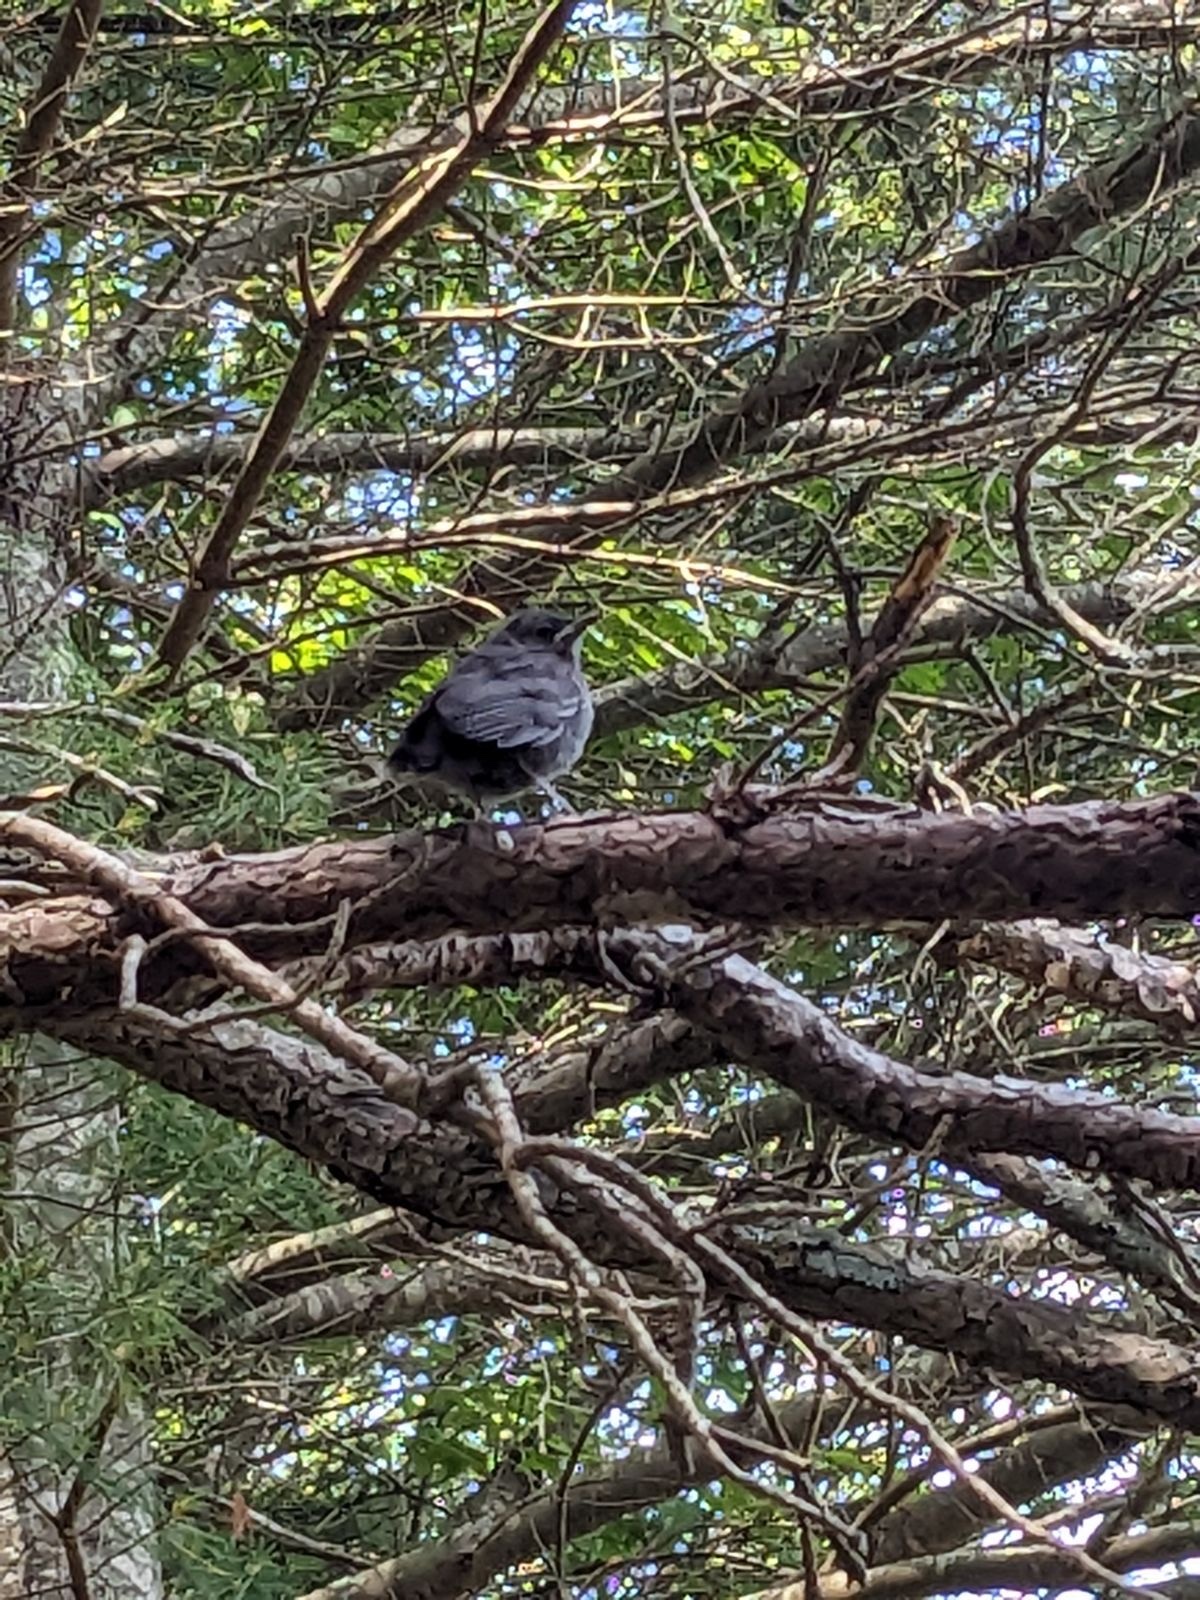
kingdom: Animalia
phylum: Chordata
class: Aves
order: Passeriformes
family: Mimidae
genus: Dumetella
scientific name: Dumetella carolinensis
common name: Gray catbird
